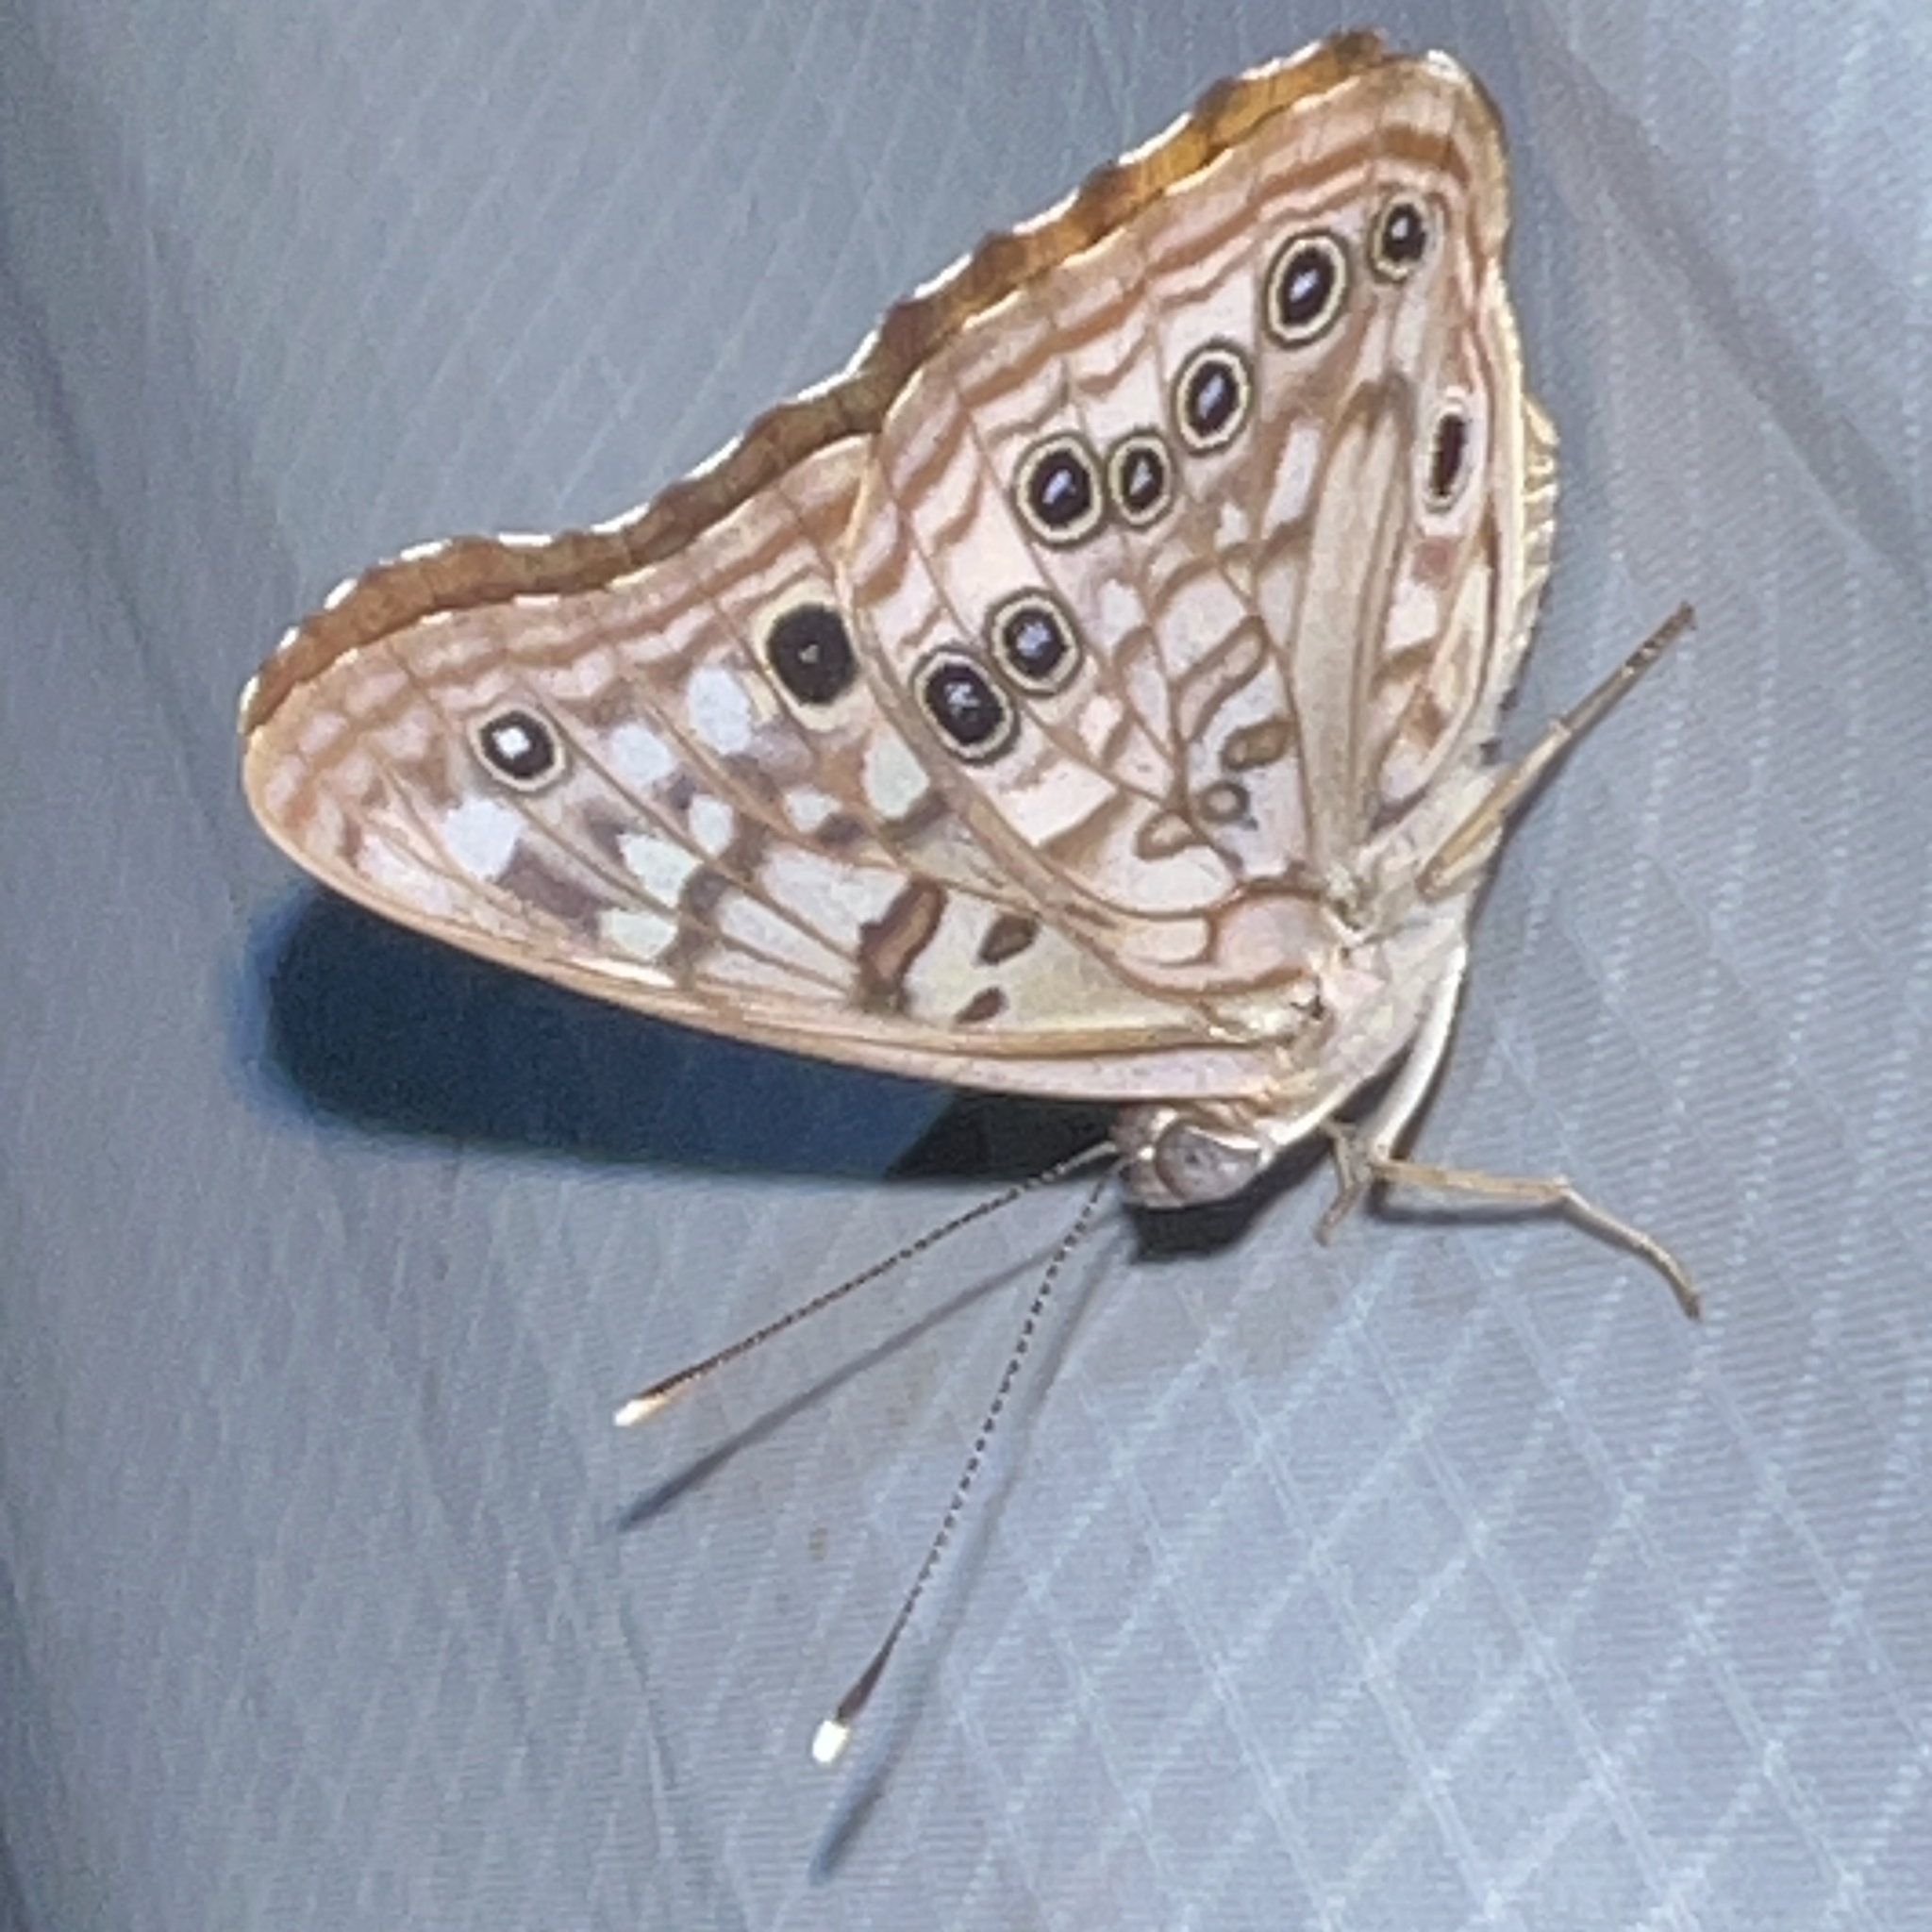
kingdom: Animalia
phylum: Arthropoda
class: Insecta
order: Lepidoptera
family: Nymphalidae
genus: Asterocampa
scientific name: Asterocampa celtis
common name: Hackberry emperor
